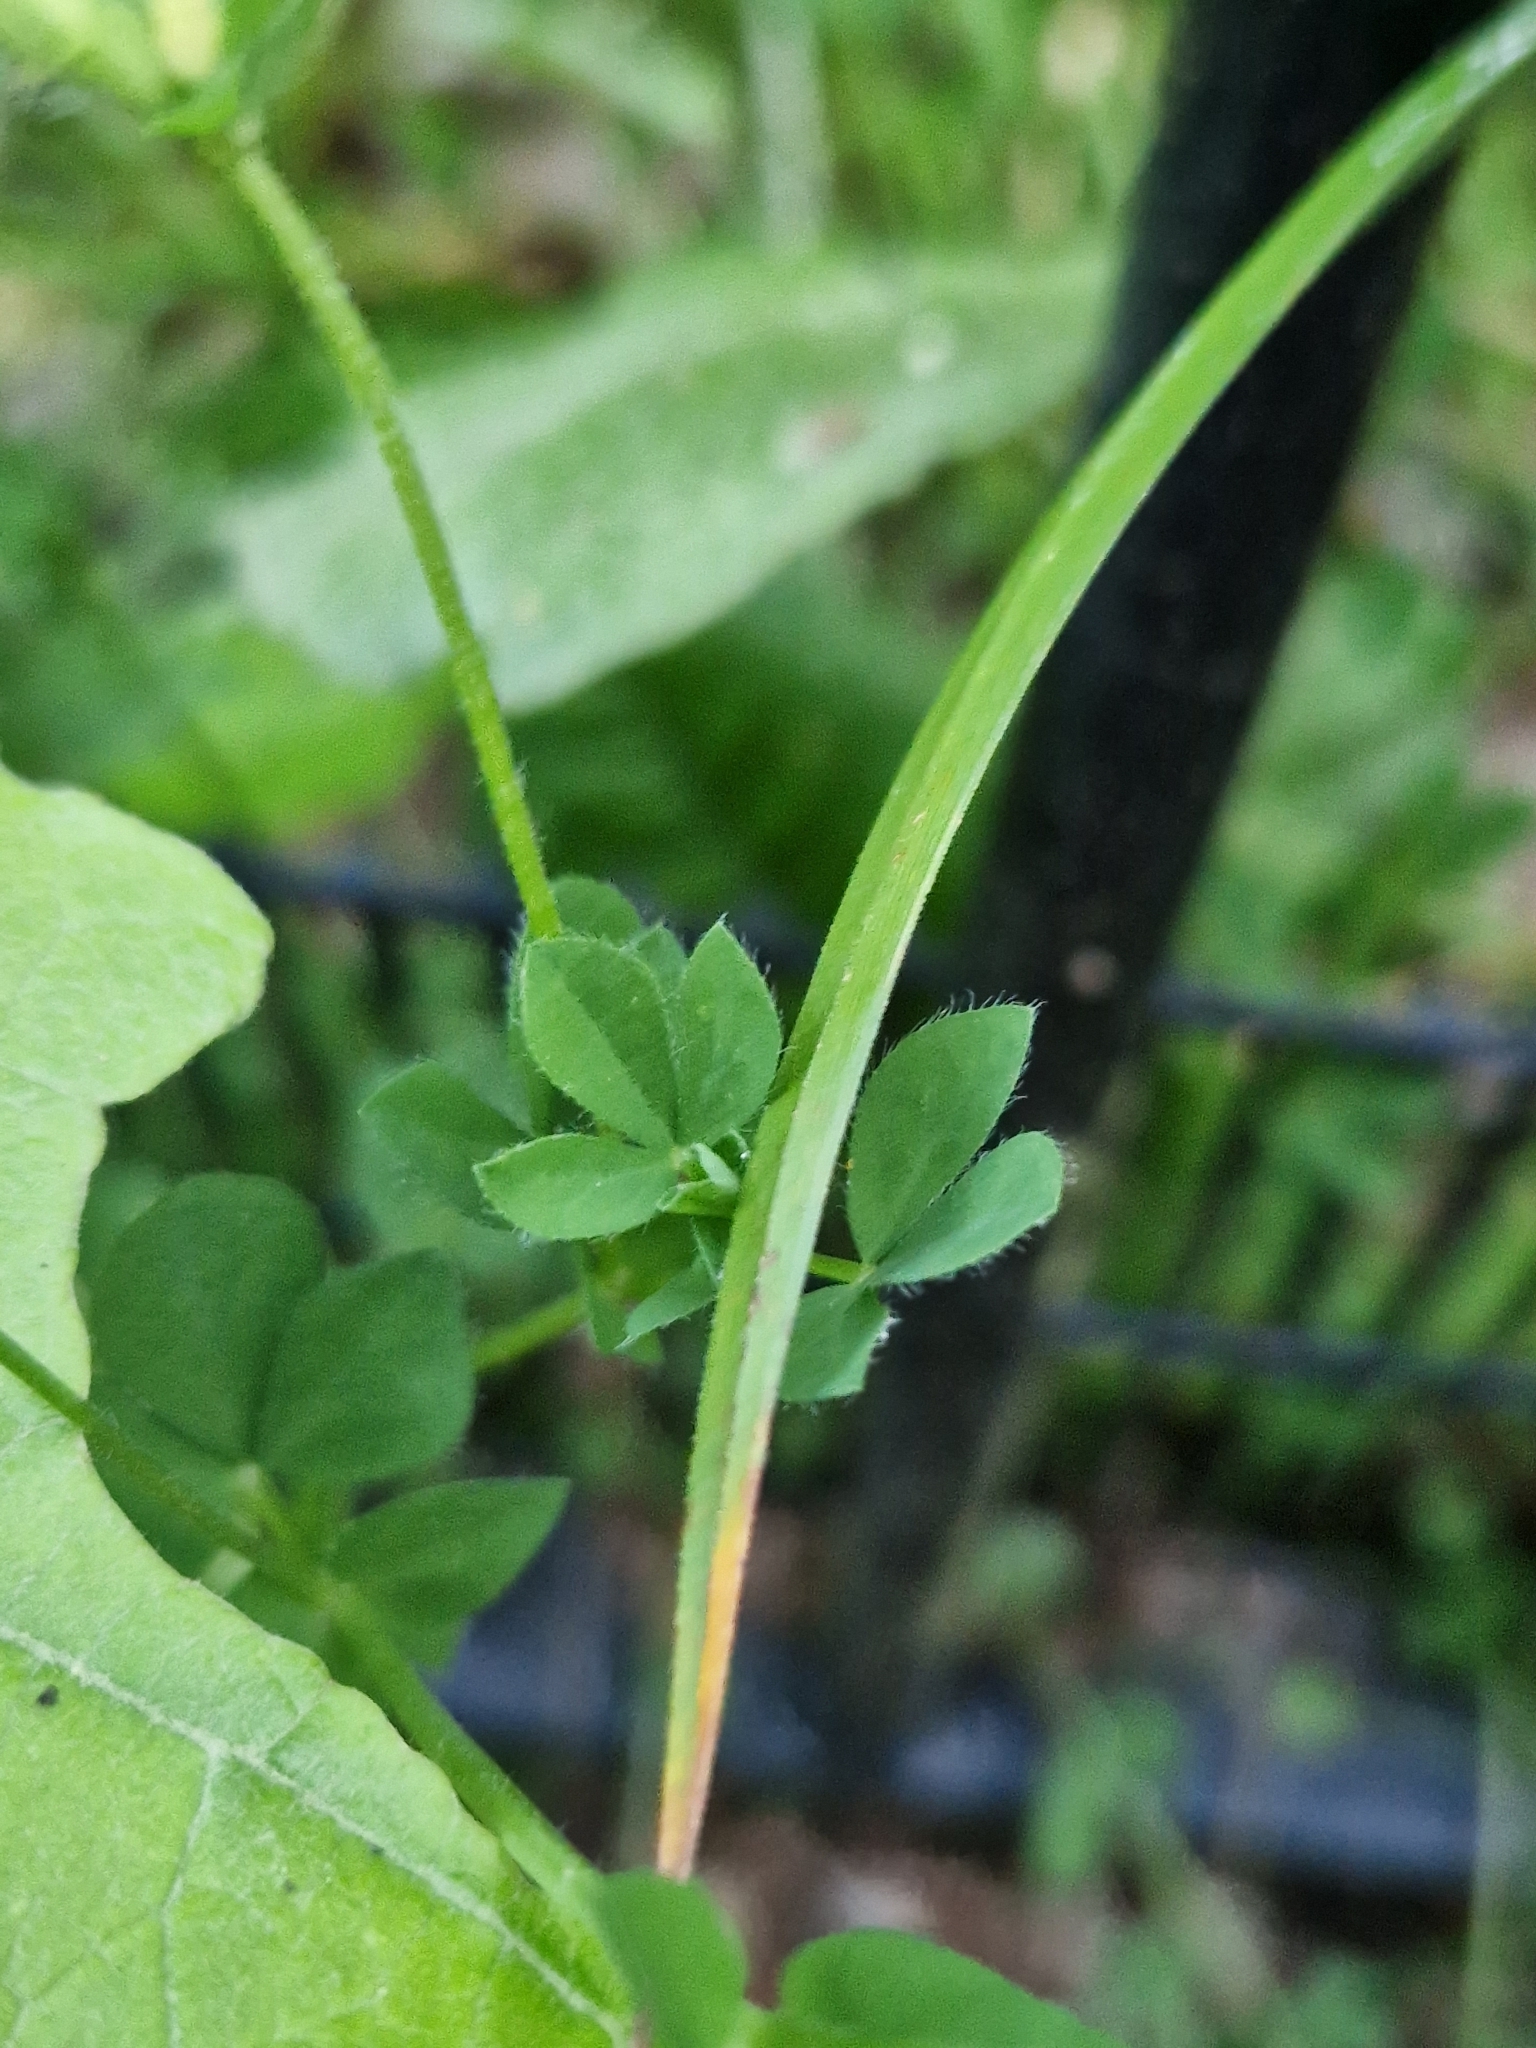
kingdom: Plantae
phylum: Tracheophyta
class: Magnoliopsida
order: Fabales
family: Fabaceae
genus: Lotus
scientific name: Lotus corniculatus
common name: Common bird's-foot-trefoil
